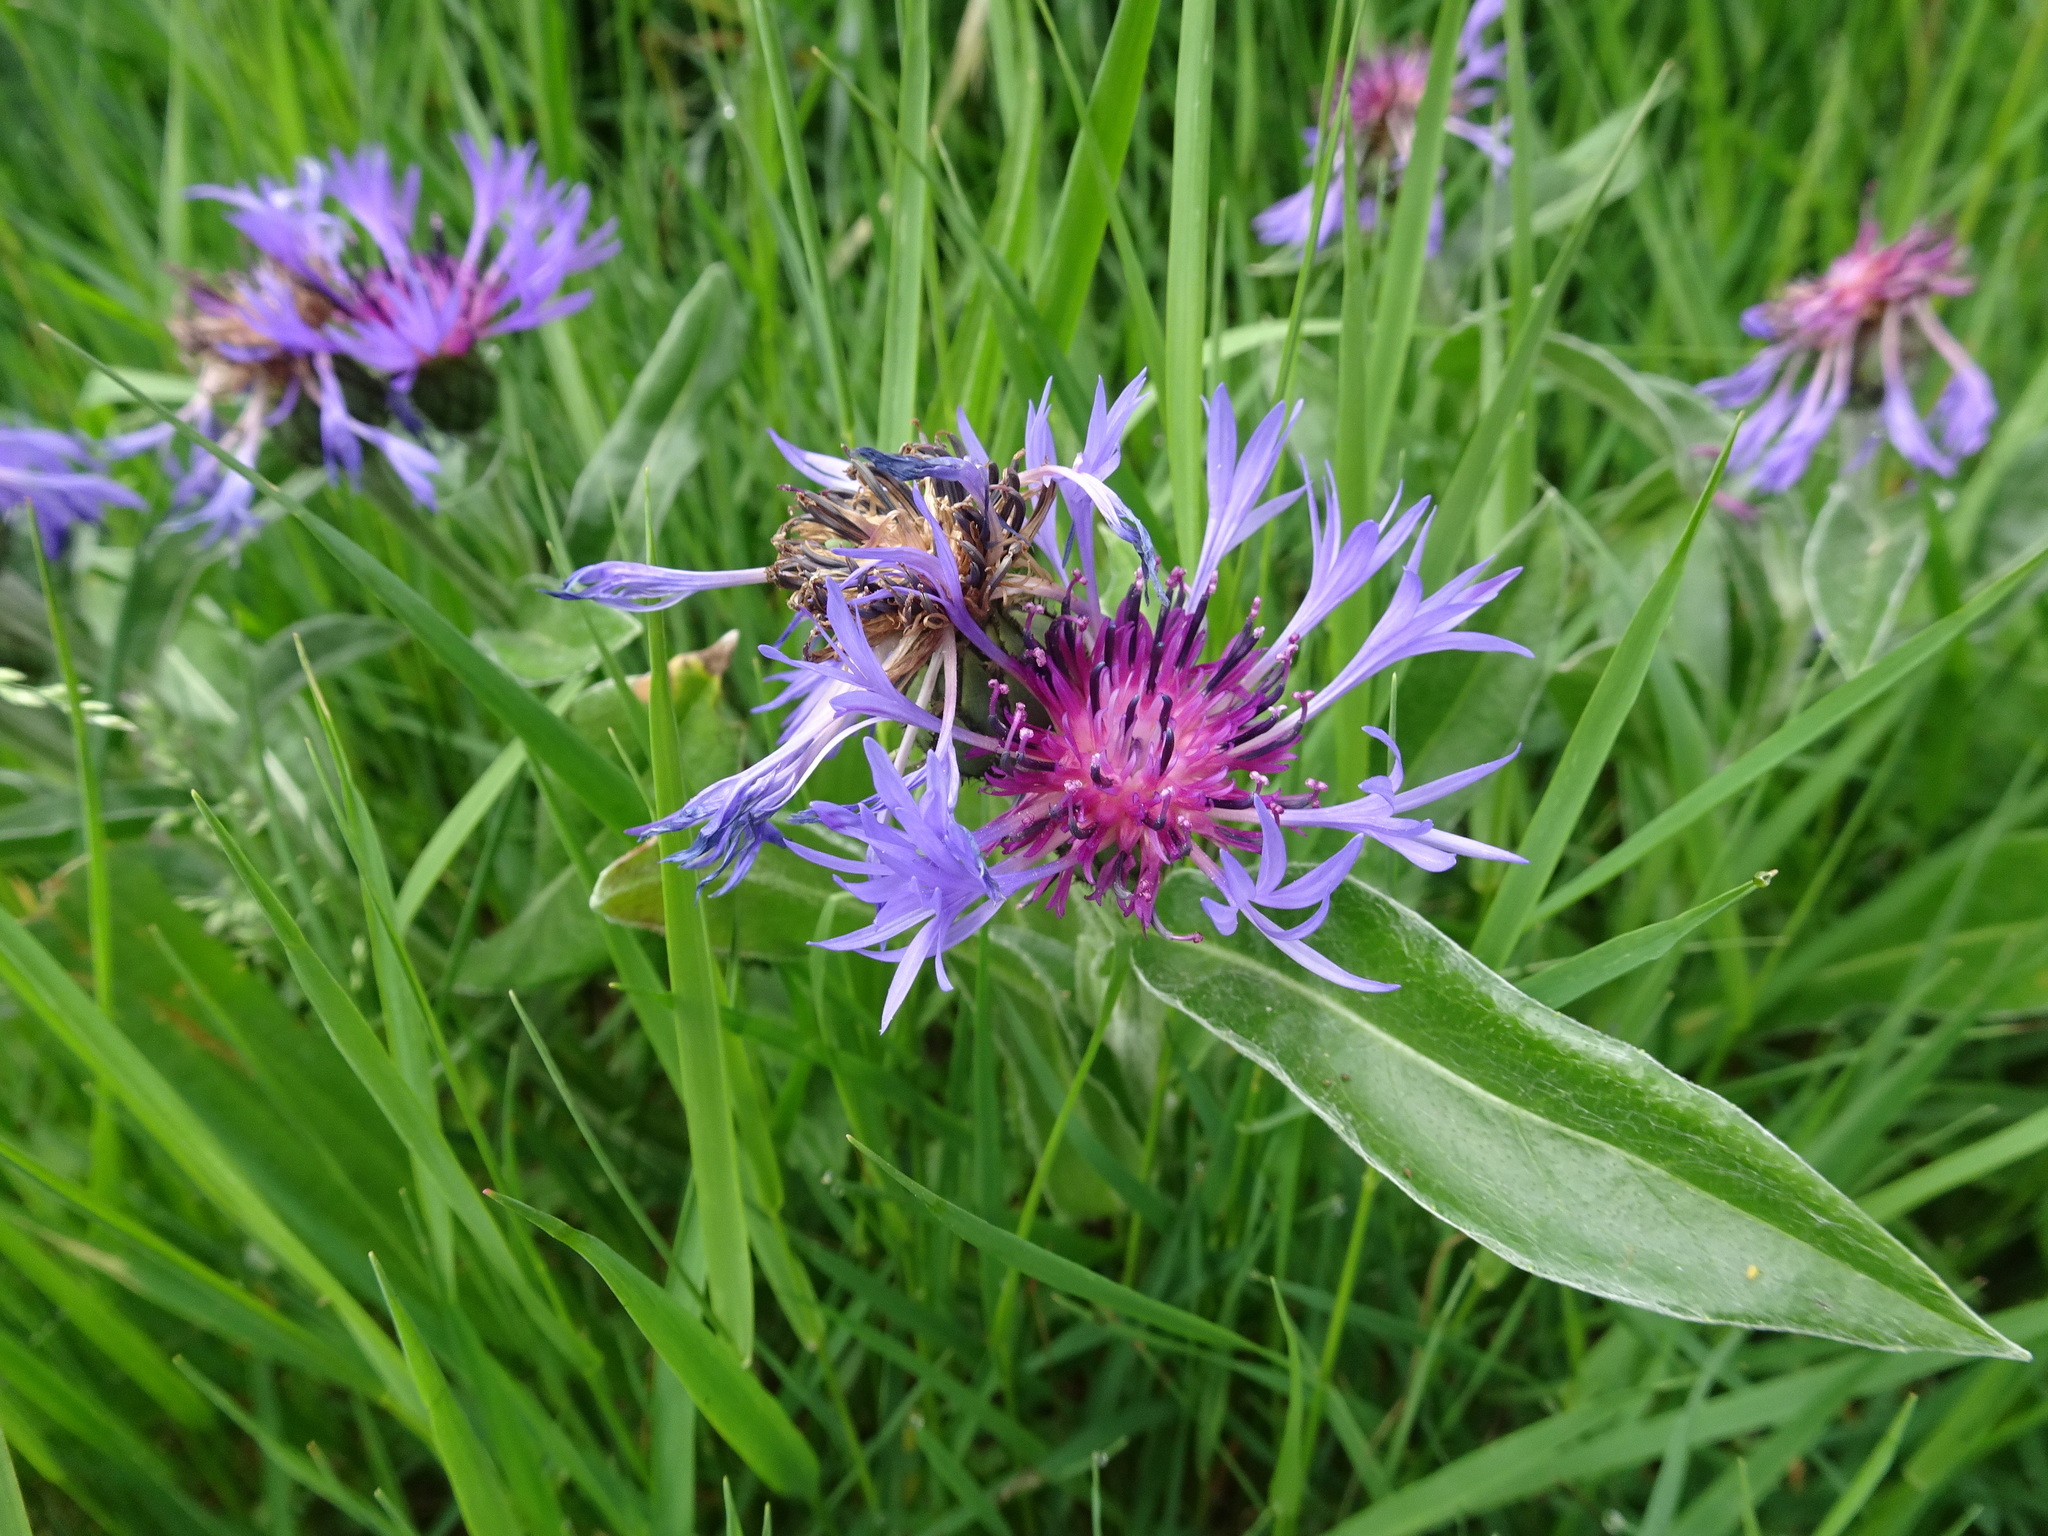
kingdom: Plantae
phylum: Tracheophyta
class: Magnoliopsida
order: Asterales
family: Asteraceae
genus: Centaurea
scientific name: Centaurea montana
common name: Perennial cornflower
